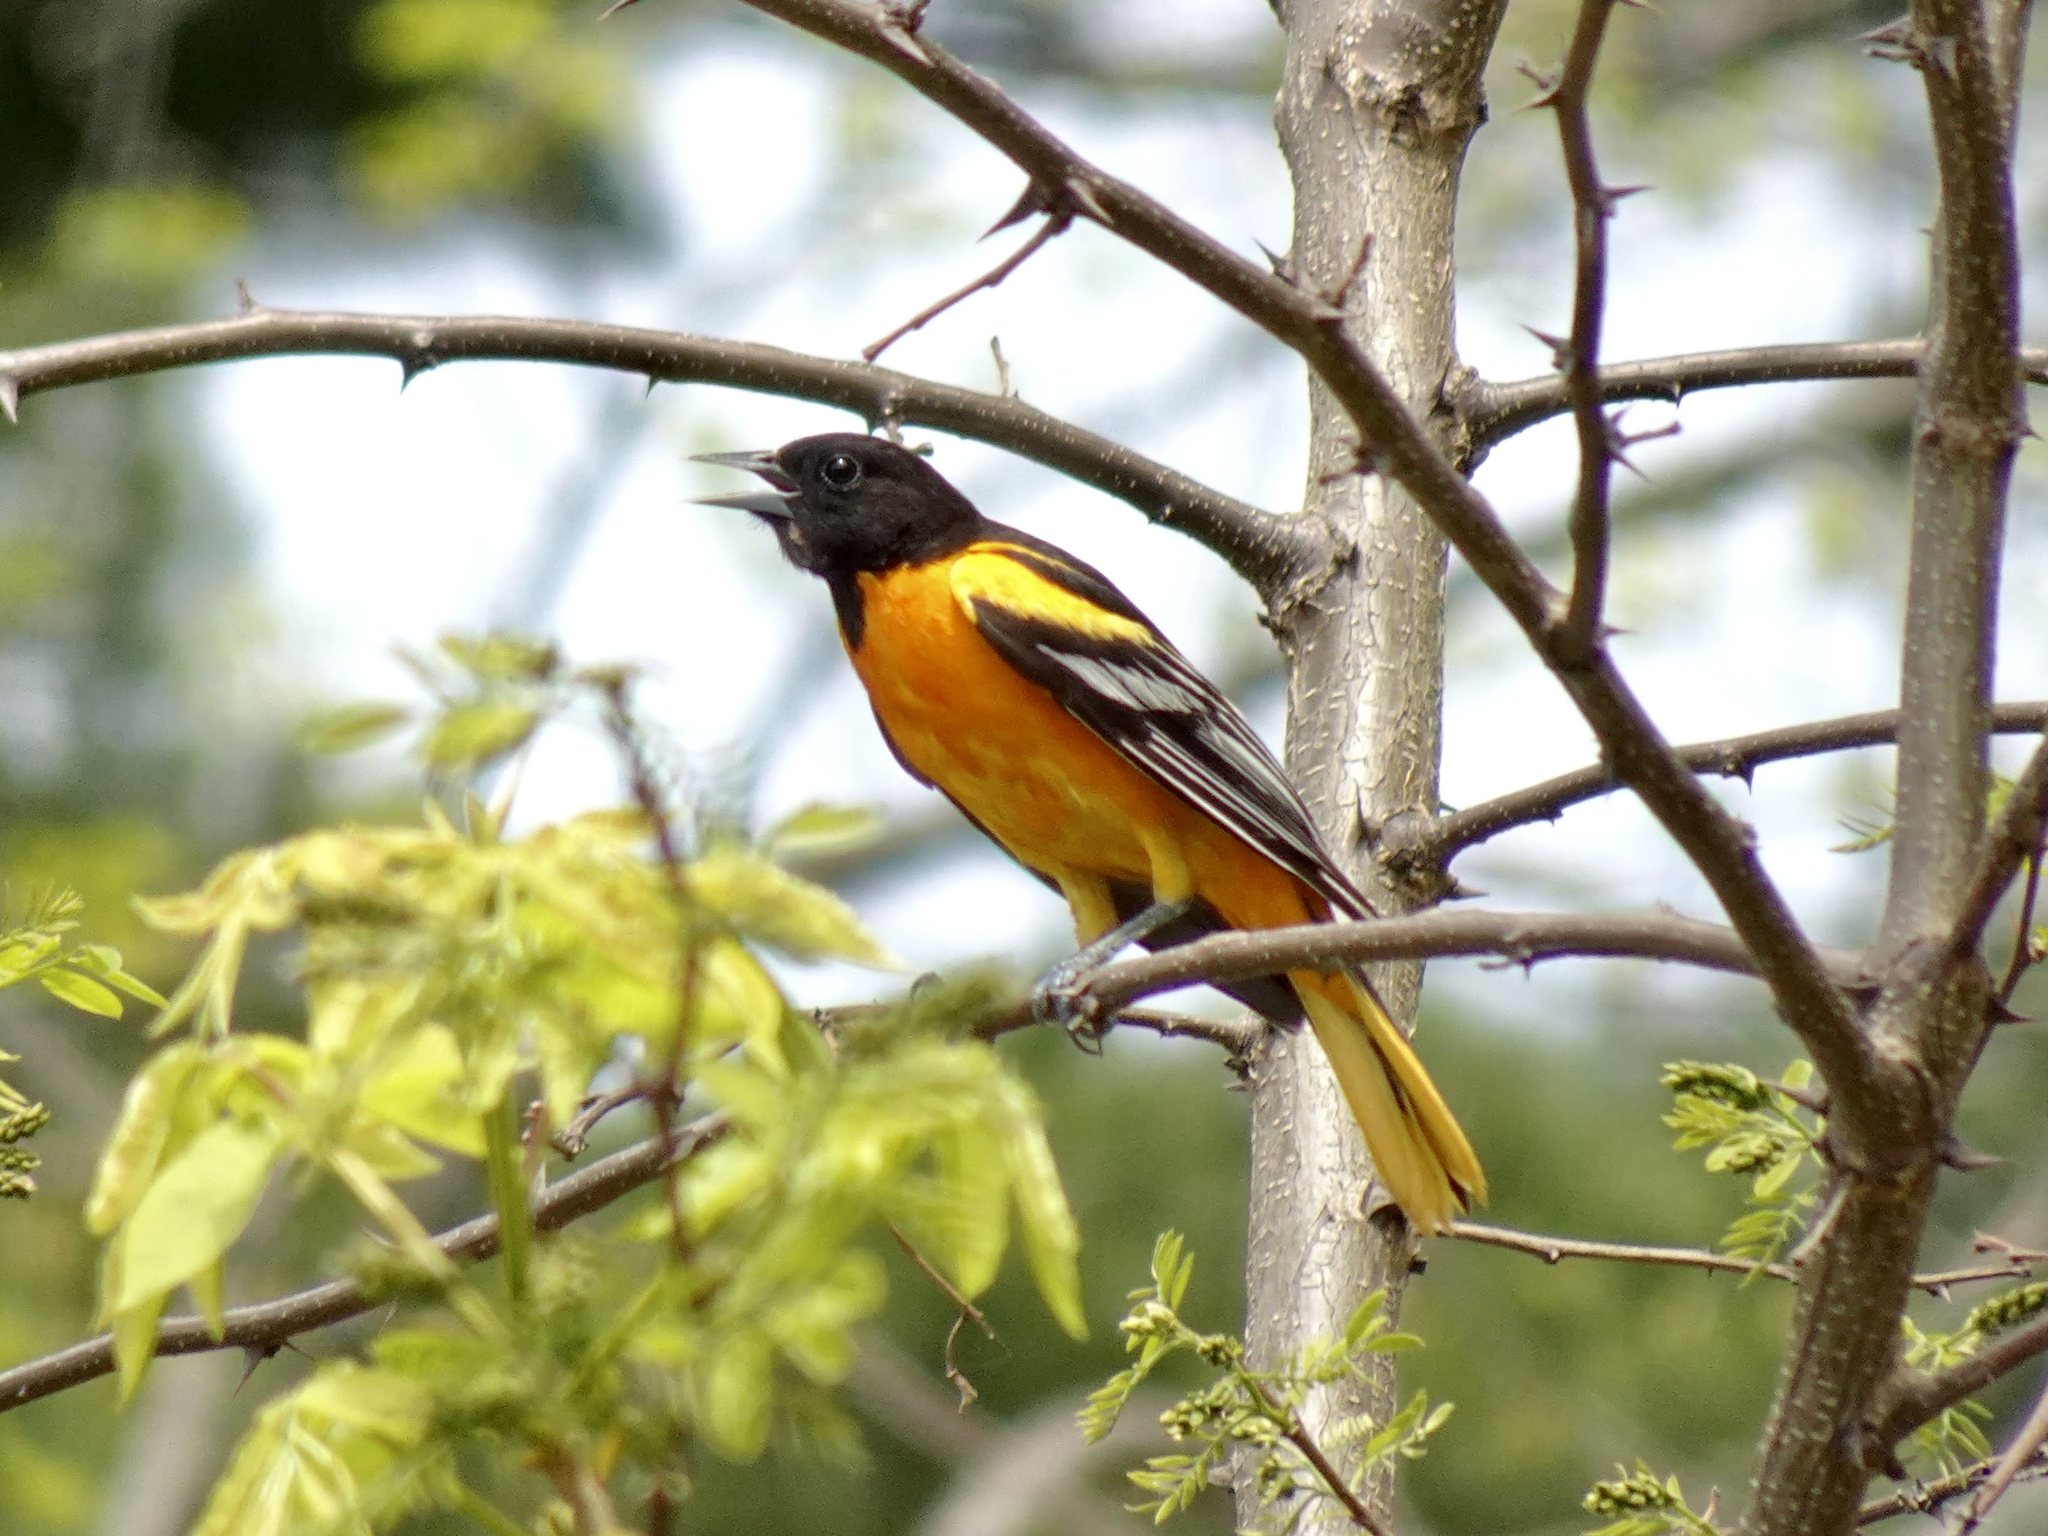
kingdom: Animalia
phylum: Chordata
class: Aves
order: Passeriformes
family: Icteridae
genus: Icterus
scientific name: Icterus galbula
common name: Baltimore oriole
